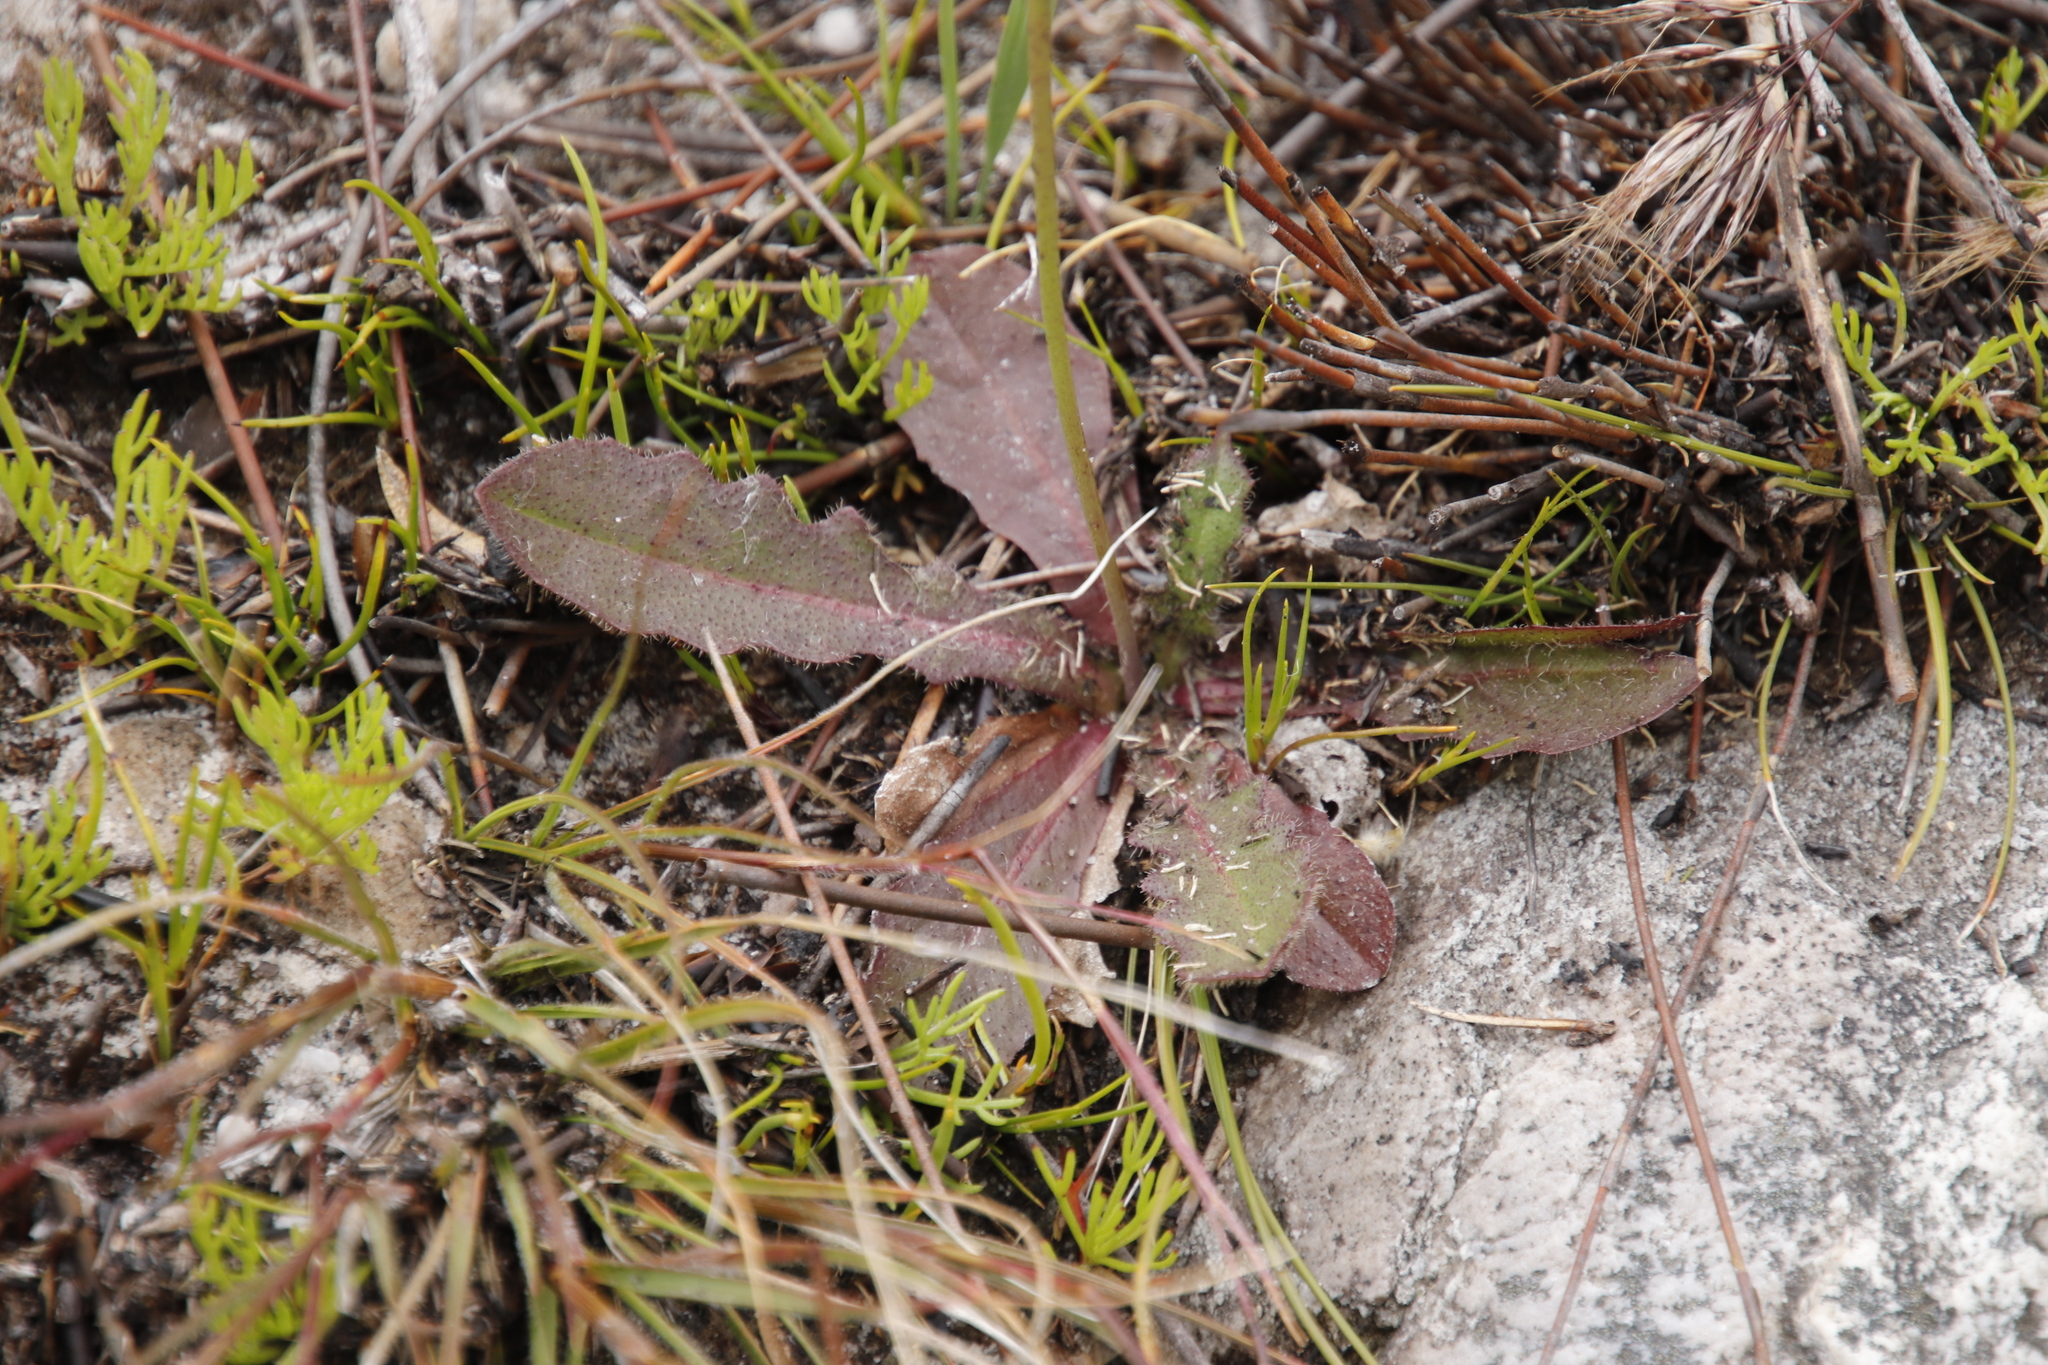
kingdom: Plantae
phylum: Tracheophyta
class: Magnoliopsida
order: Asterales
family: Asteraceae
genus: Hypochaeris
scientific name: Hypochaeris radicata
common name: Flatweed
